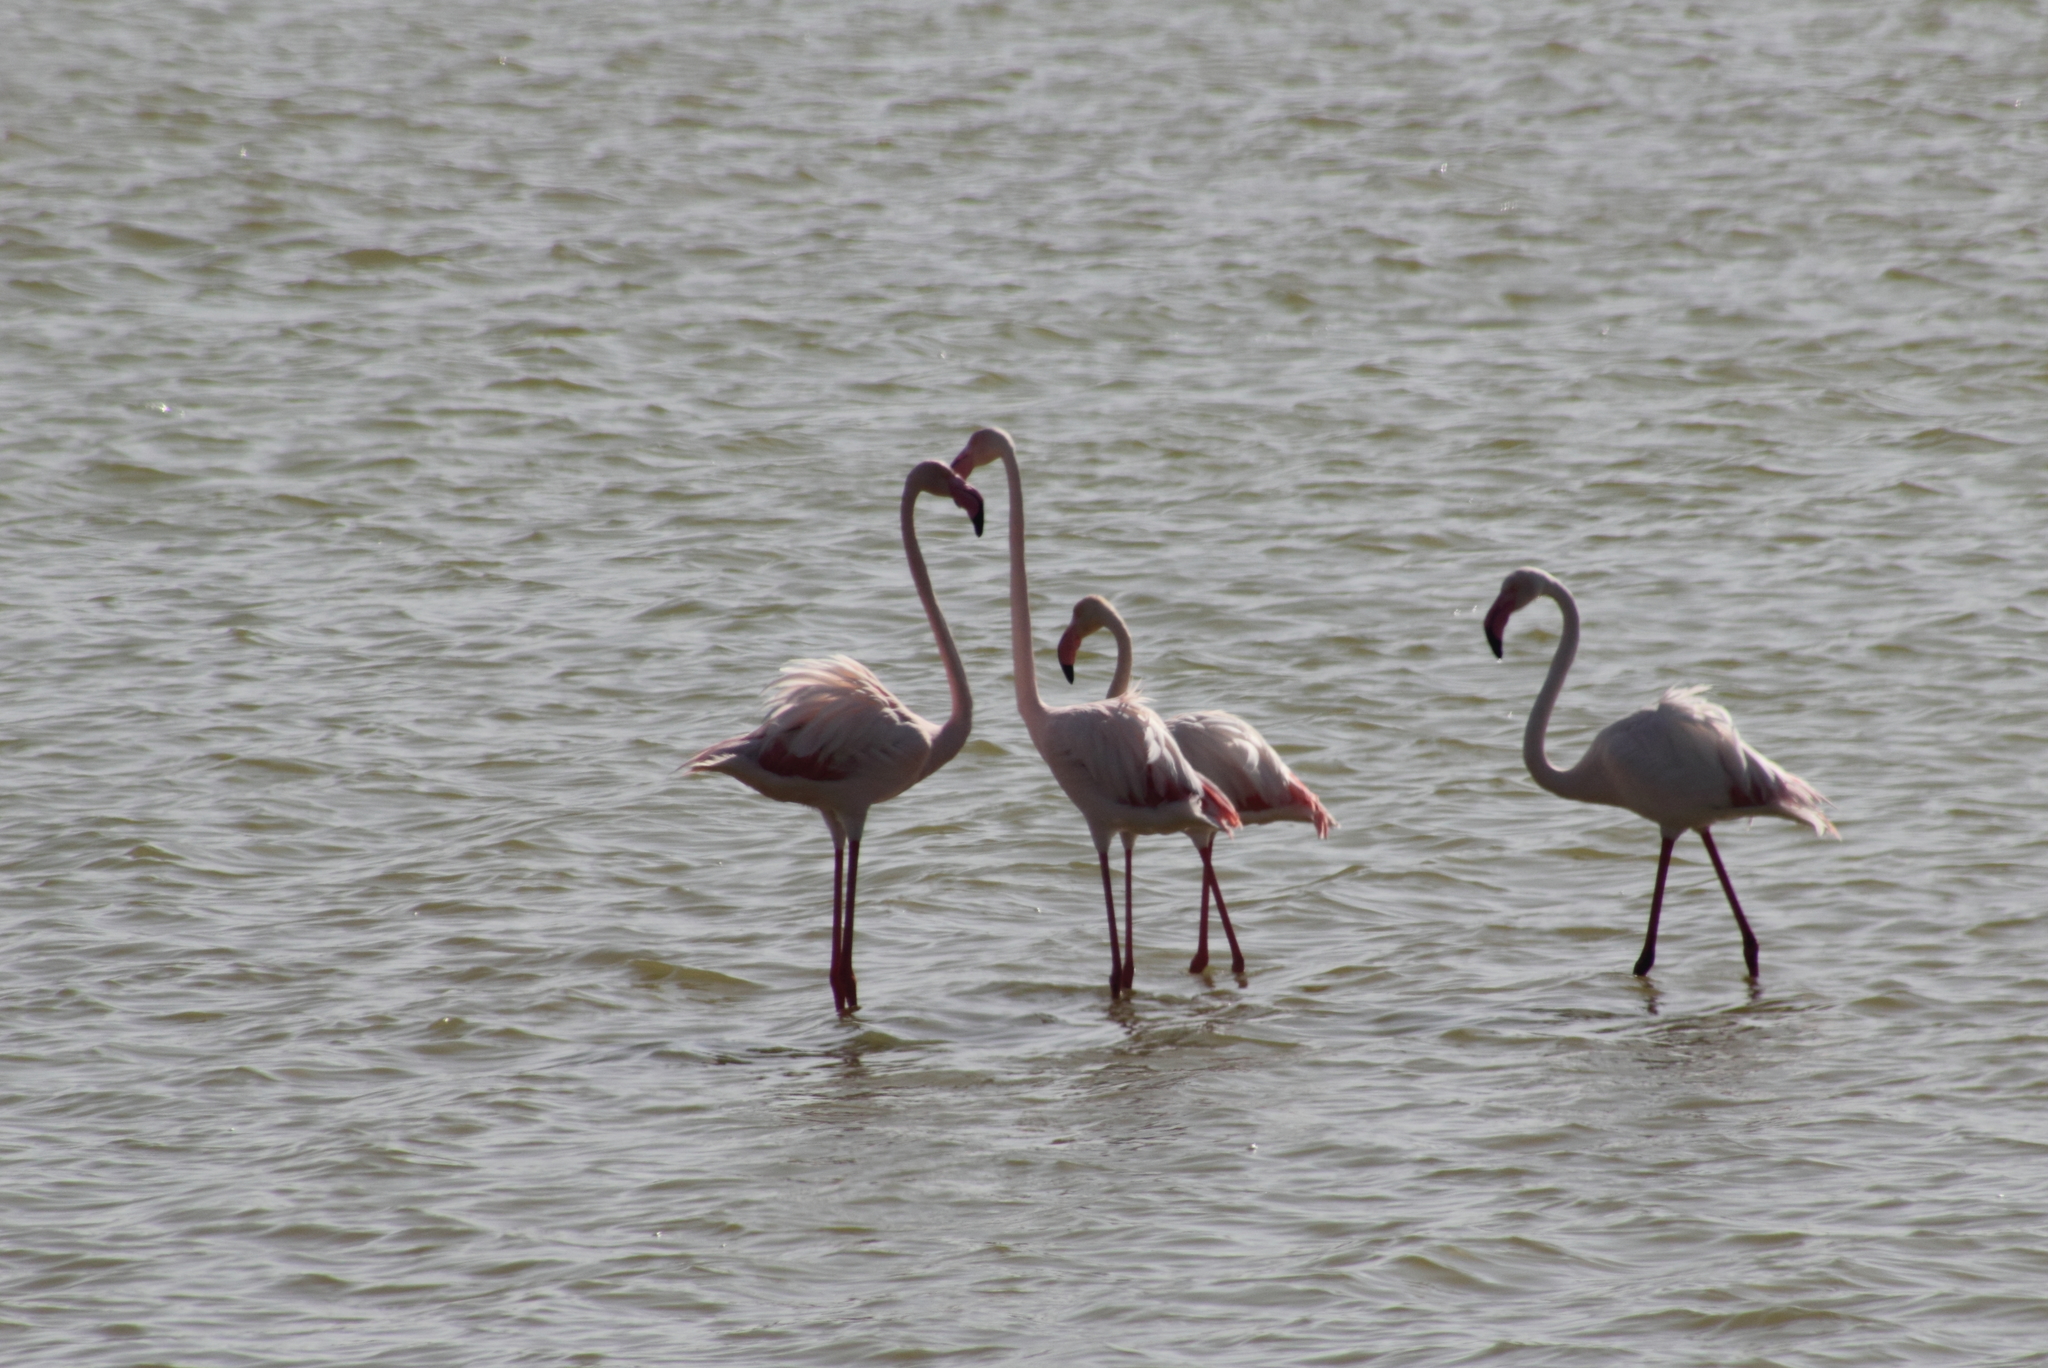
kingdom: Animalia
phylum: Chordata
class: Aves
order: Phoenicopteriformes
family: Phoenicopteridae
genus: Phoenicopterus
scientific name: Phoenicopterus roseus
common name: Greater flamingo
